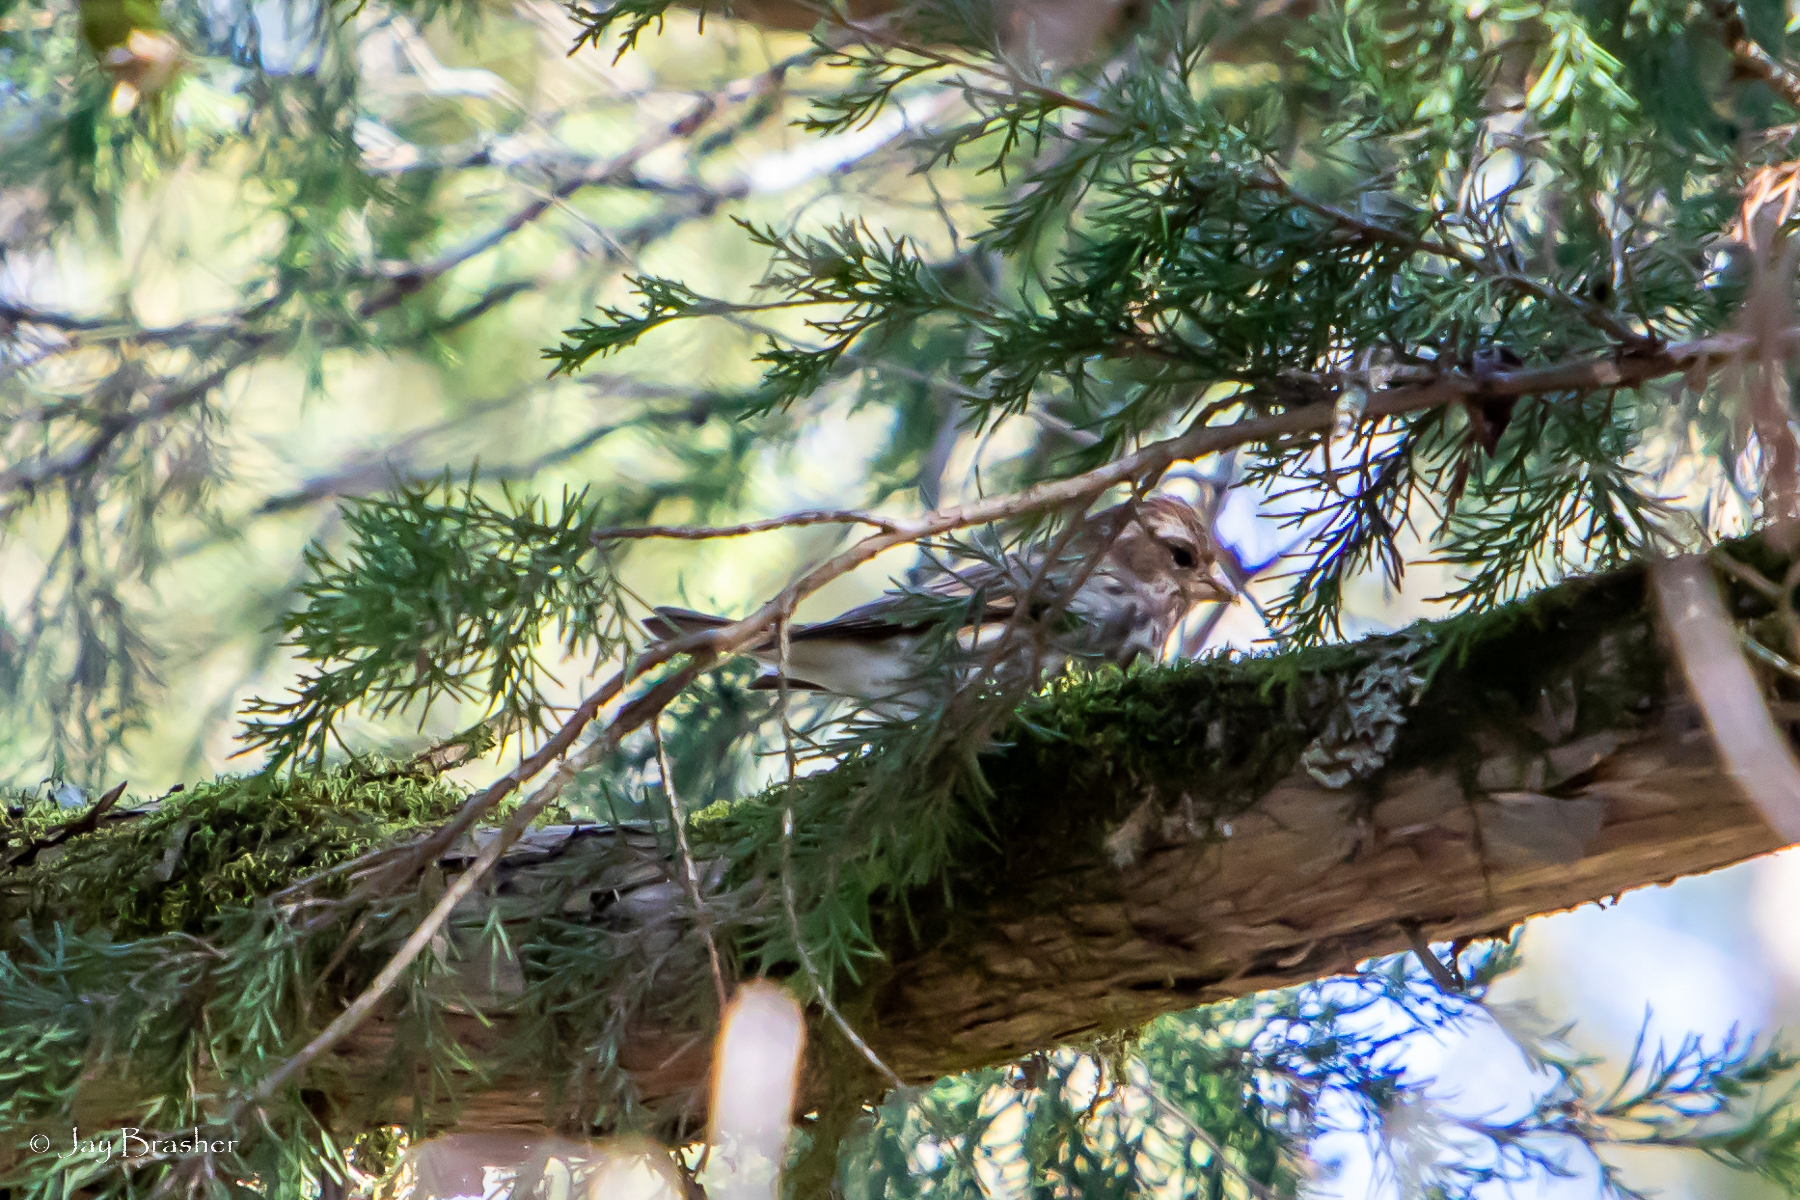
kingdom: Animalia
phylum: Chordata
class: Aves
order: Passeriformes
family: Fringillidae
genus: Haemorhous
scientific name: Haemorhous purpureus
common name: Purple finch
